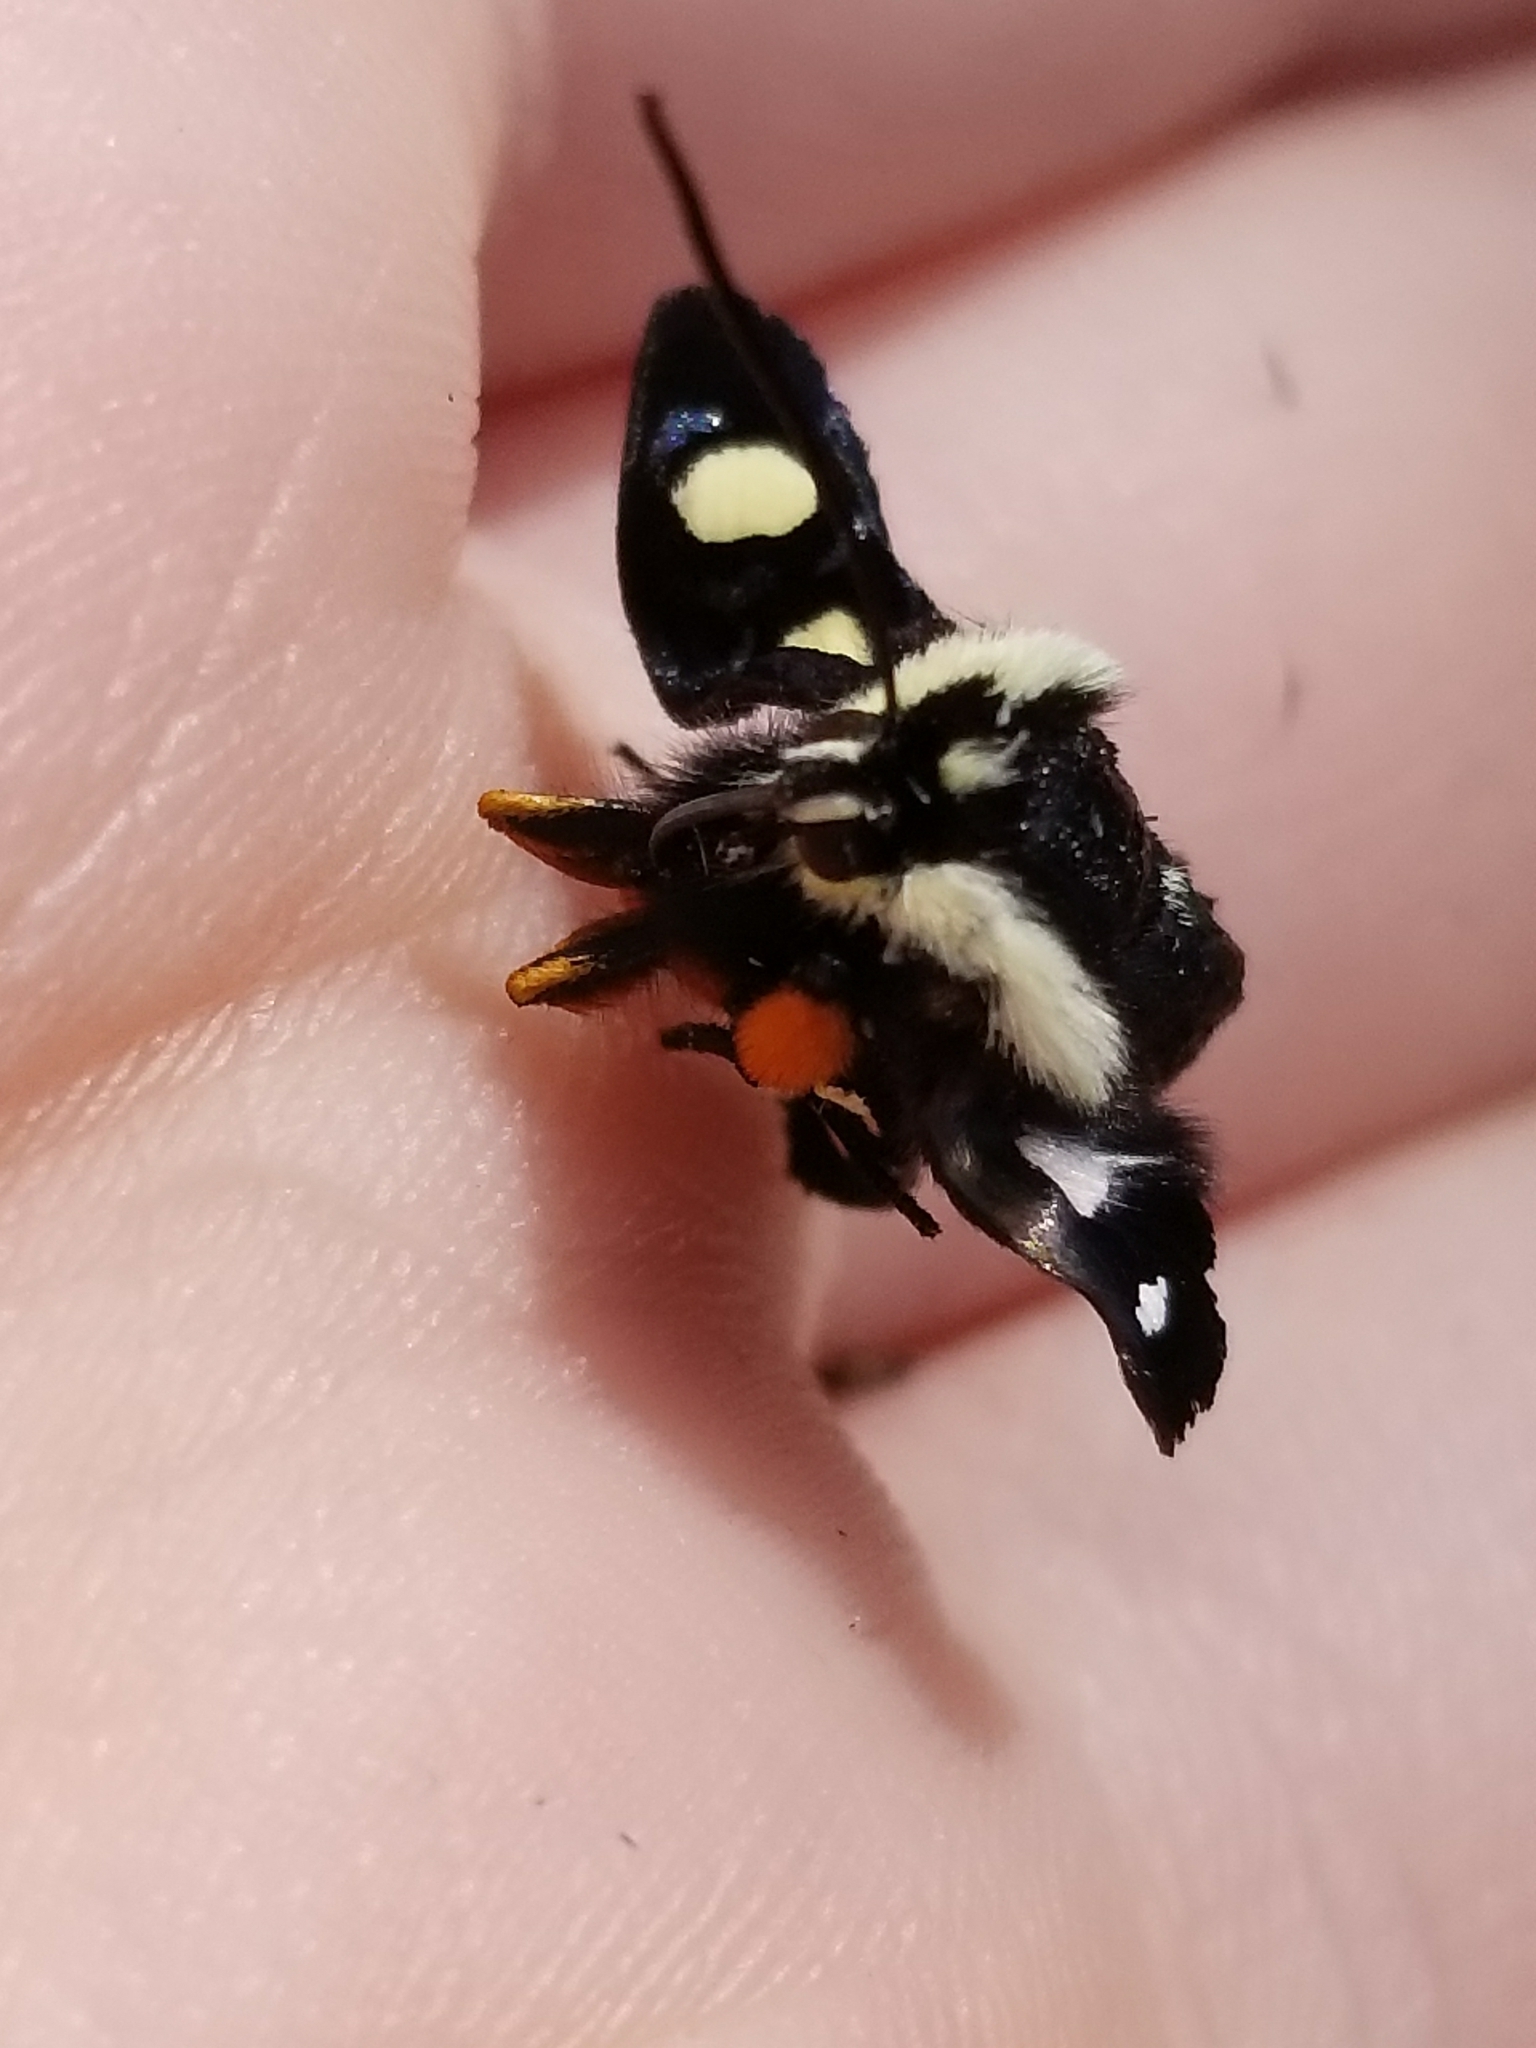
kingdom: Animalia
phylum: Arthropoda
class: Insecta
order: Lepidoptera
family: Noctuidae
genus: Alypia
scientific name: Alypia octomaculata
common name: Eight-spotted forester
